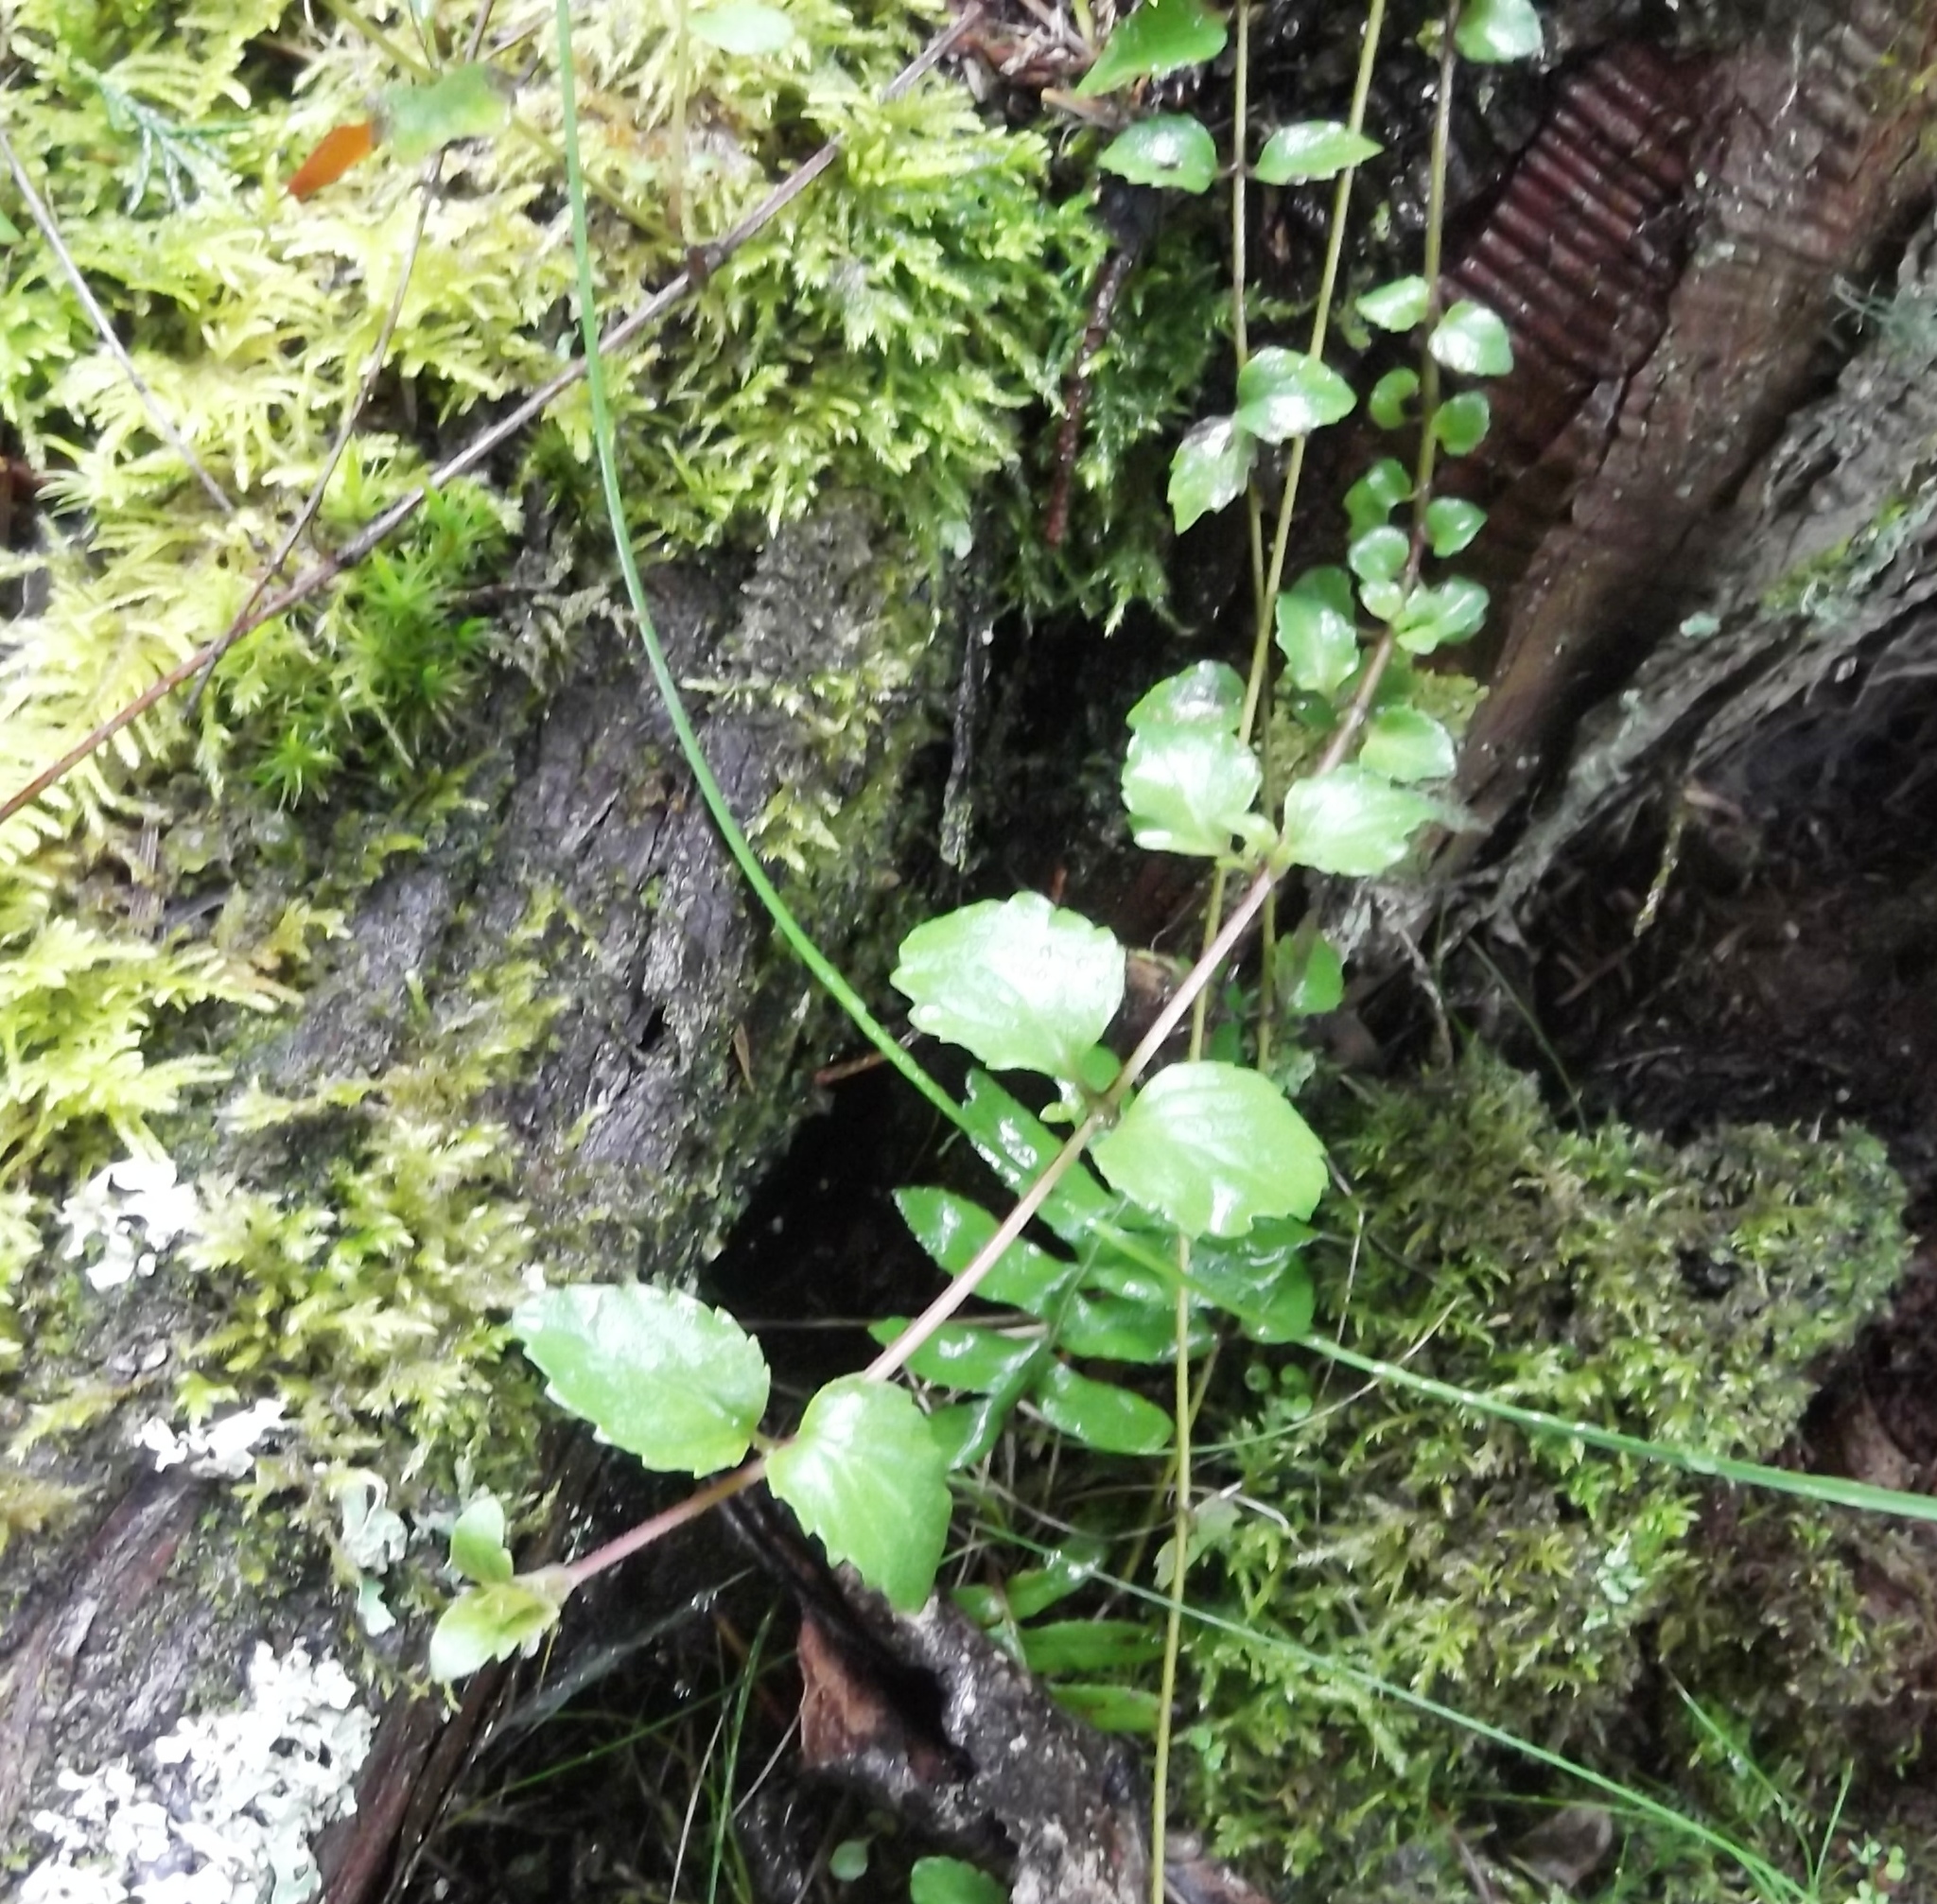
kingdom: Plantae
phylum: Tracheophyta
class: Magnoliopsida
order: Lamiales
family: Lamiaceae
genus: Micromeria
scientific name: Micromeria douglasii
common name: Yerba buena
